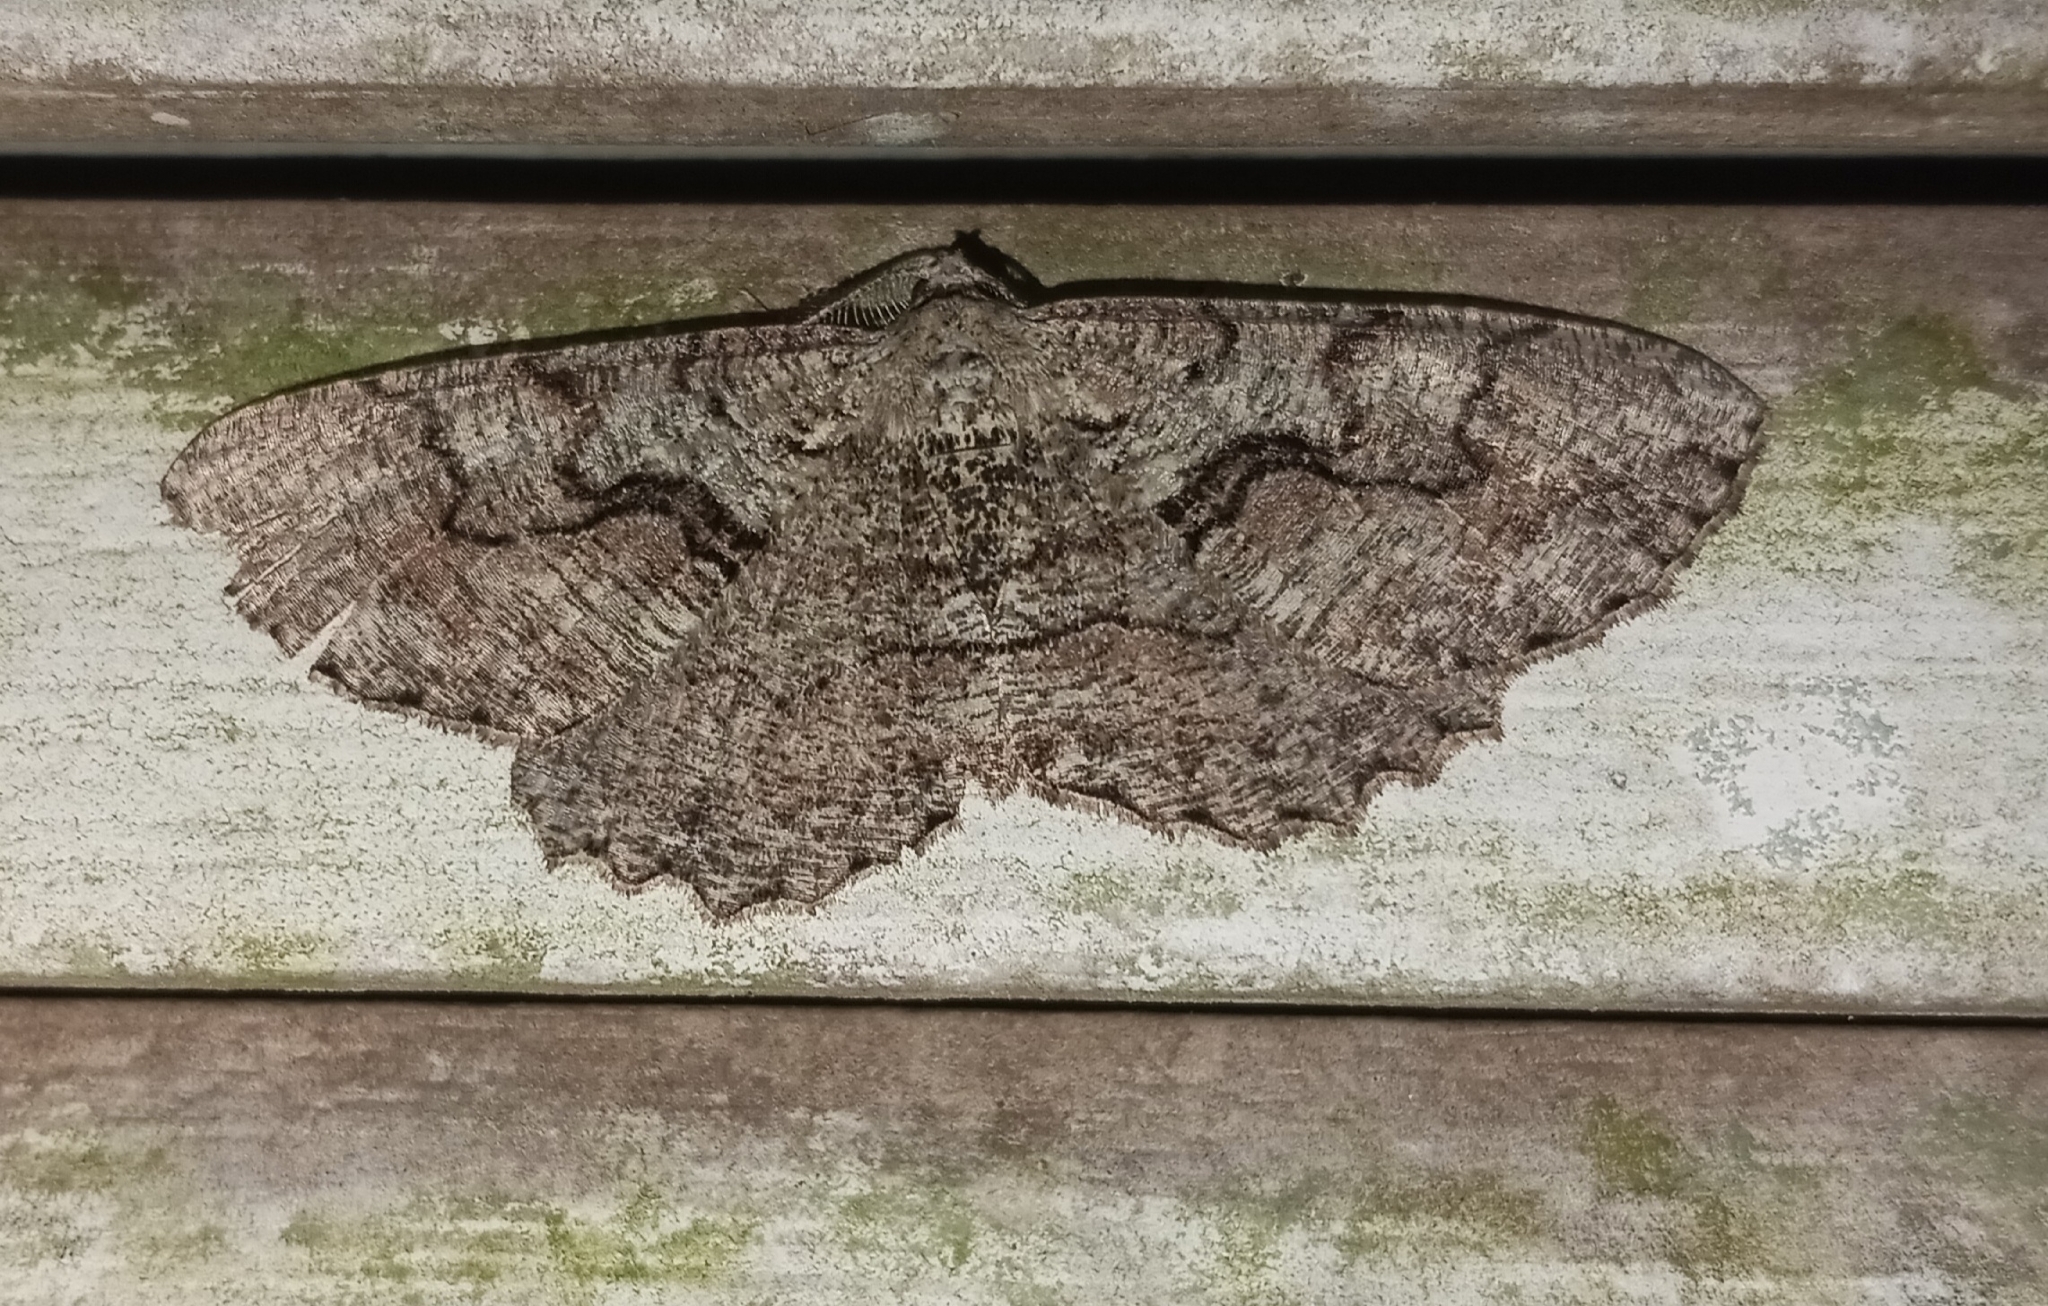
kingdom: Animalia
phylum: Arthropoda
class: Insecta
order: Lepidoptera
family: Geometridae
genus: Cymatophora
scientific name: Cymatophora approximaria
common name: Giant gray moth
